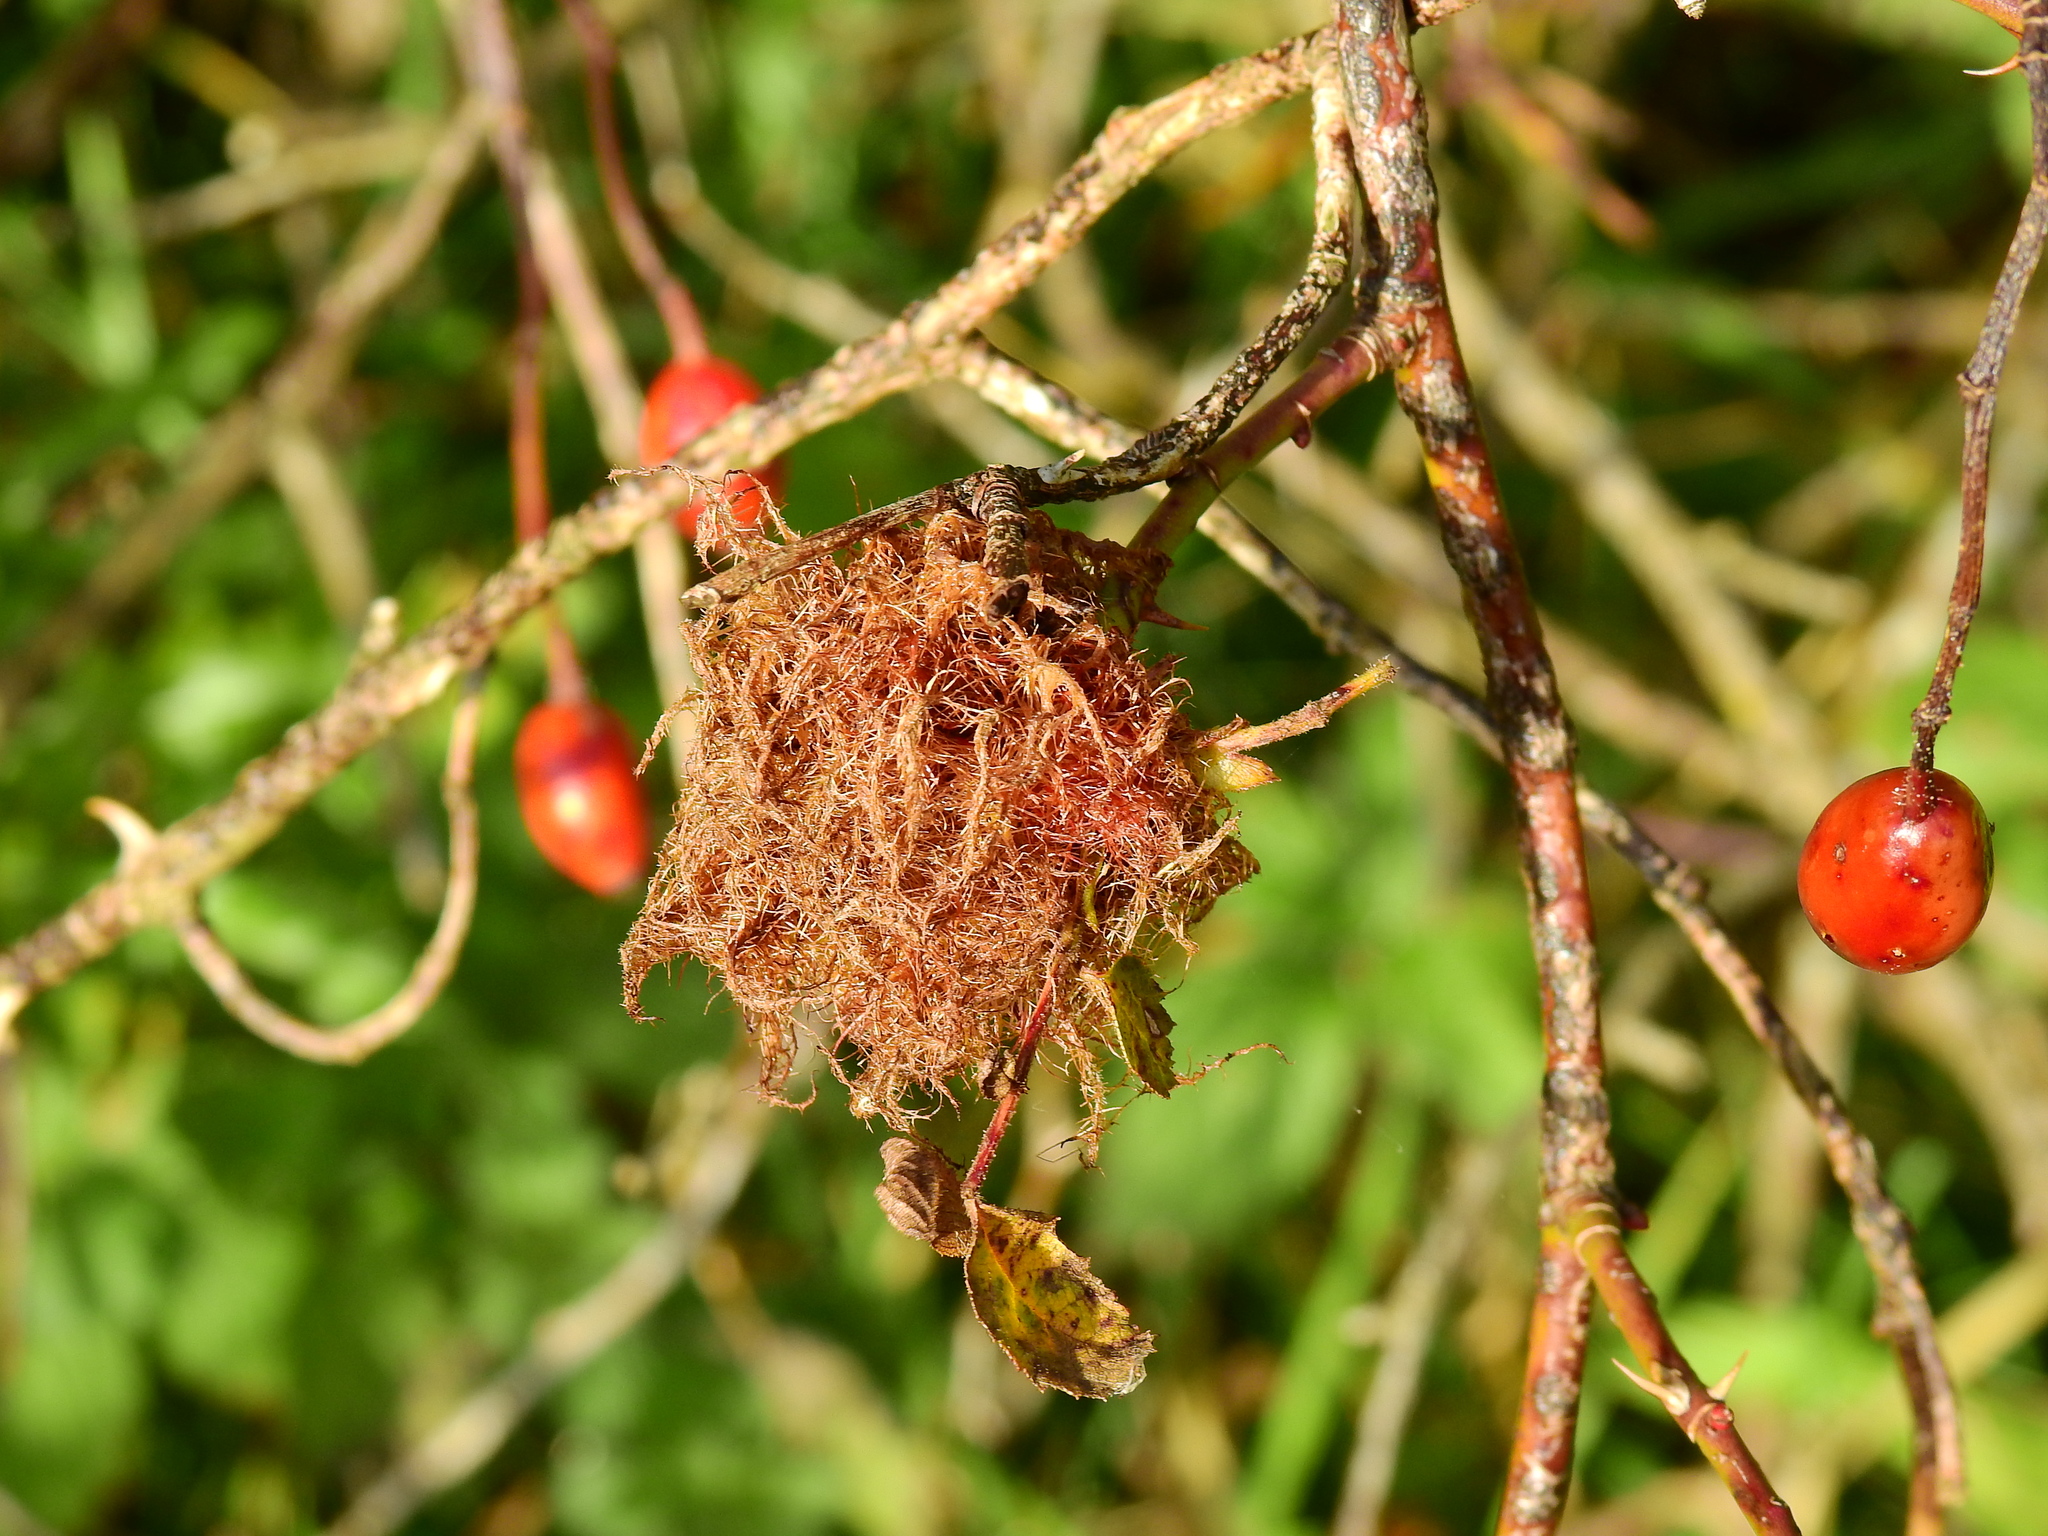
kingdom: Animalia
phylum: Arthropoda
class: Insecta
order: Hymenoptera
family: Cynipidae
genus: Diplolepis
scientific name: Diplolepis rosae
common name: Bedeguar gall
